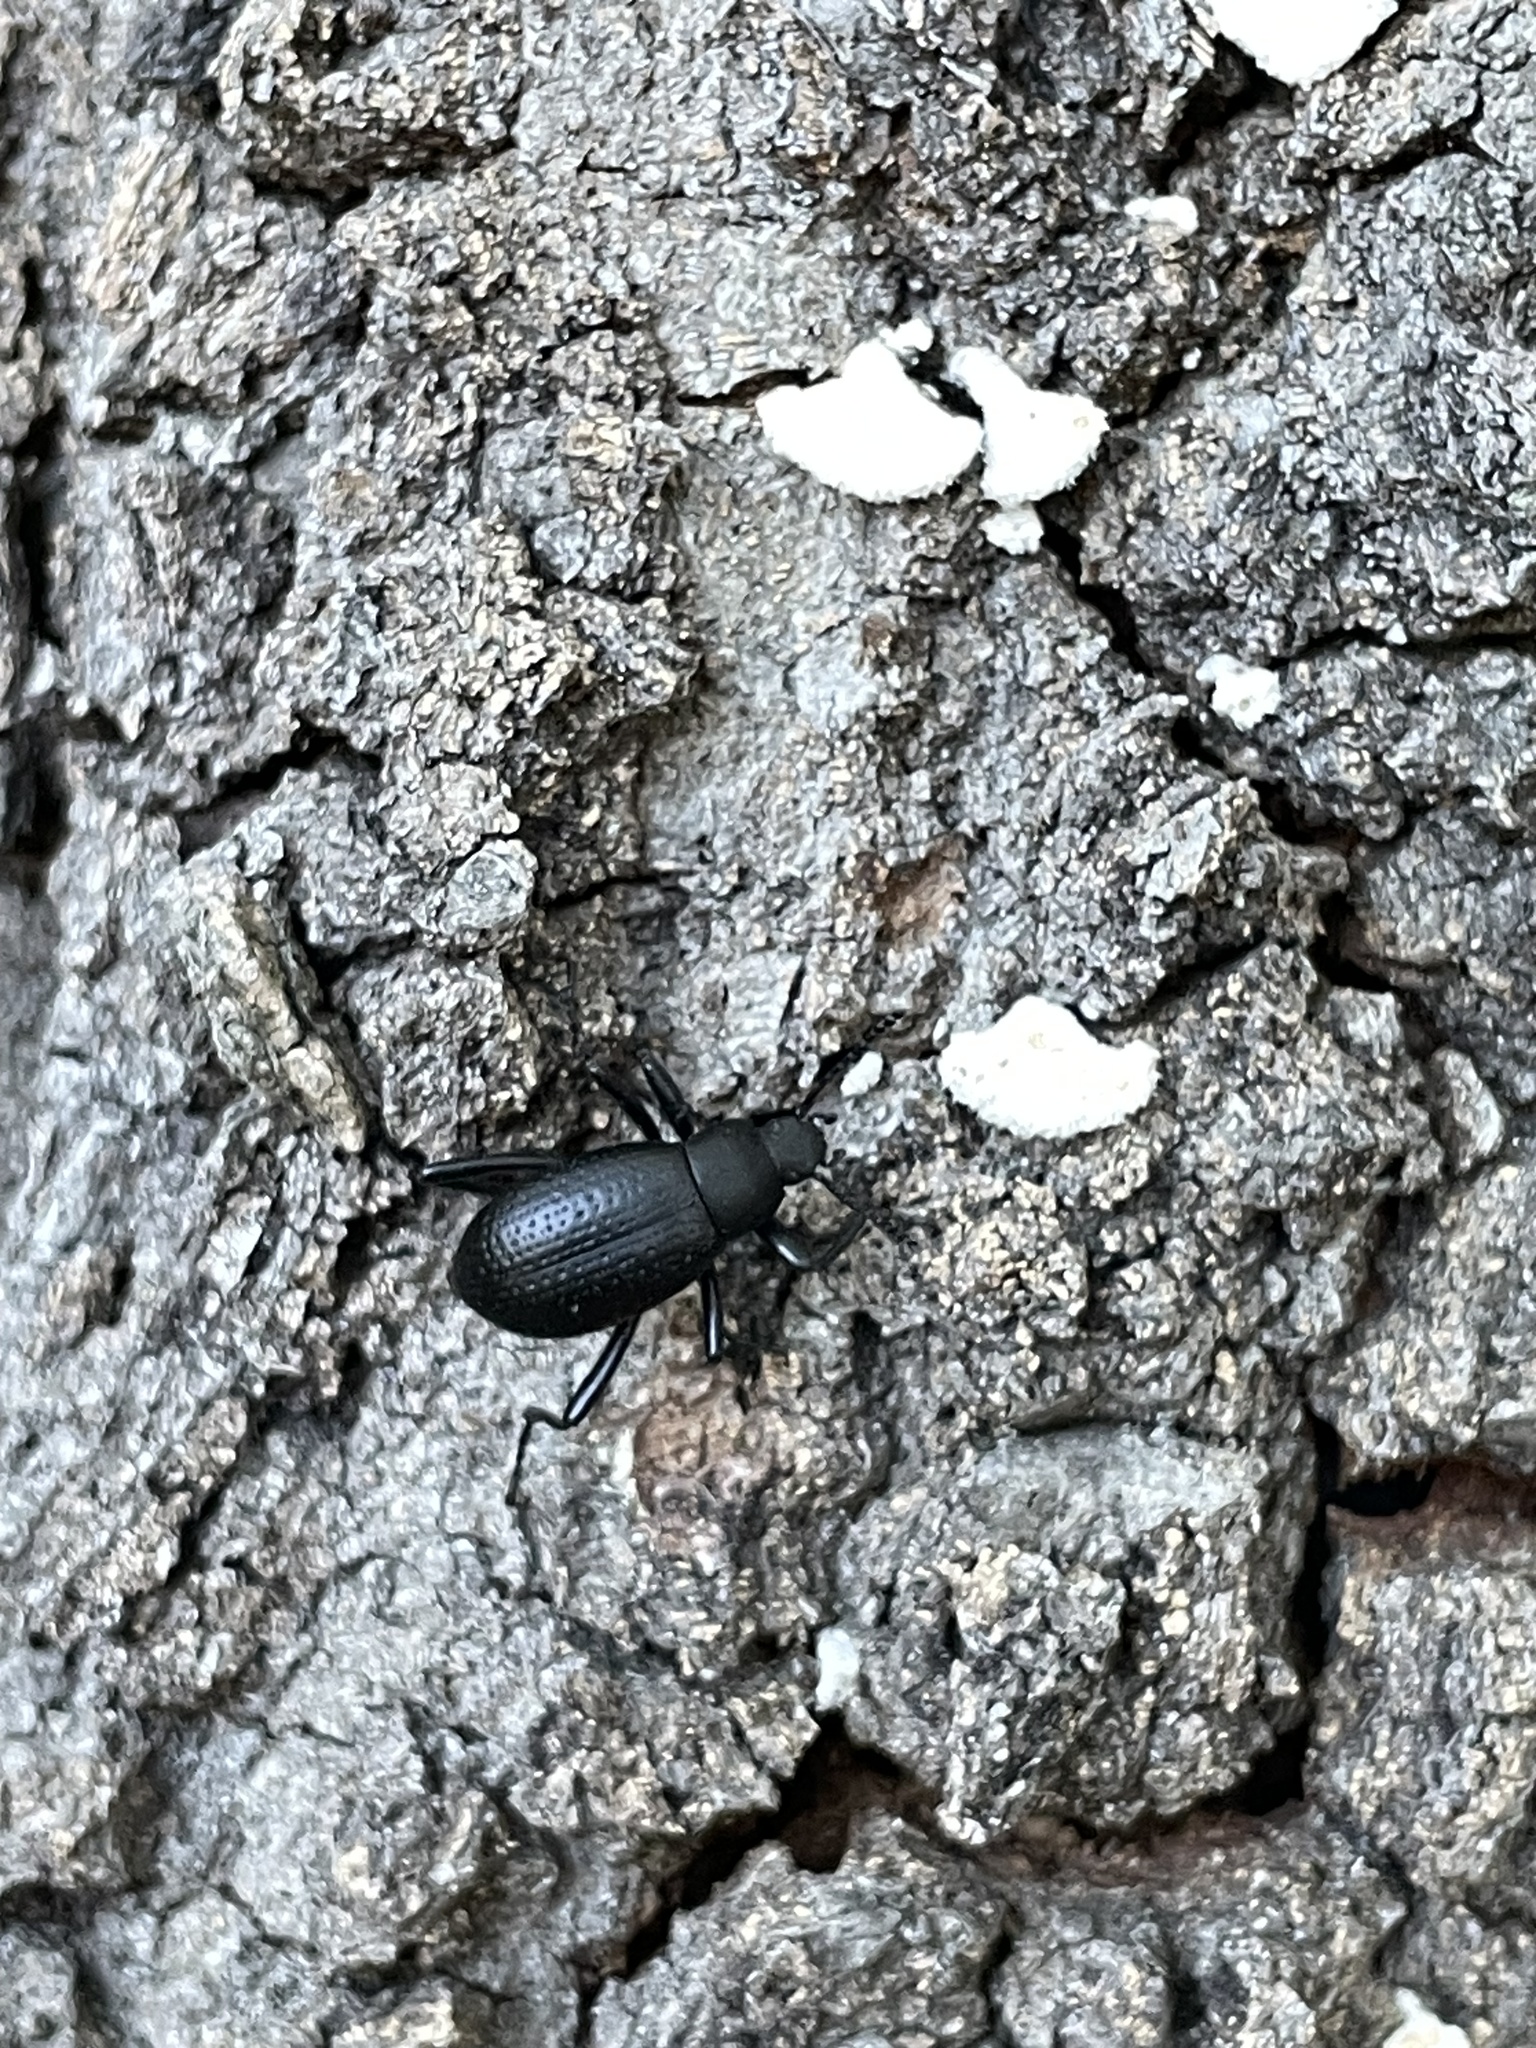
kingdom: Animalia
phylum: Arthropoda
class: Insecta
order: Coleoptera
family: Tenebrionidae
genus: Eleodes
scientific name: Eleodes goryi
